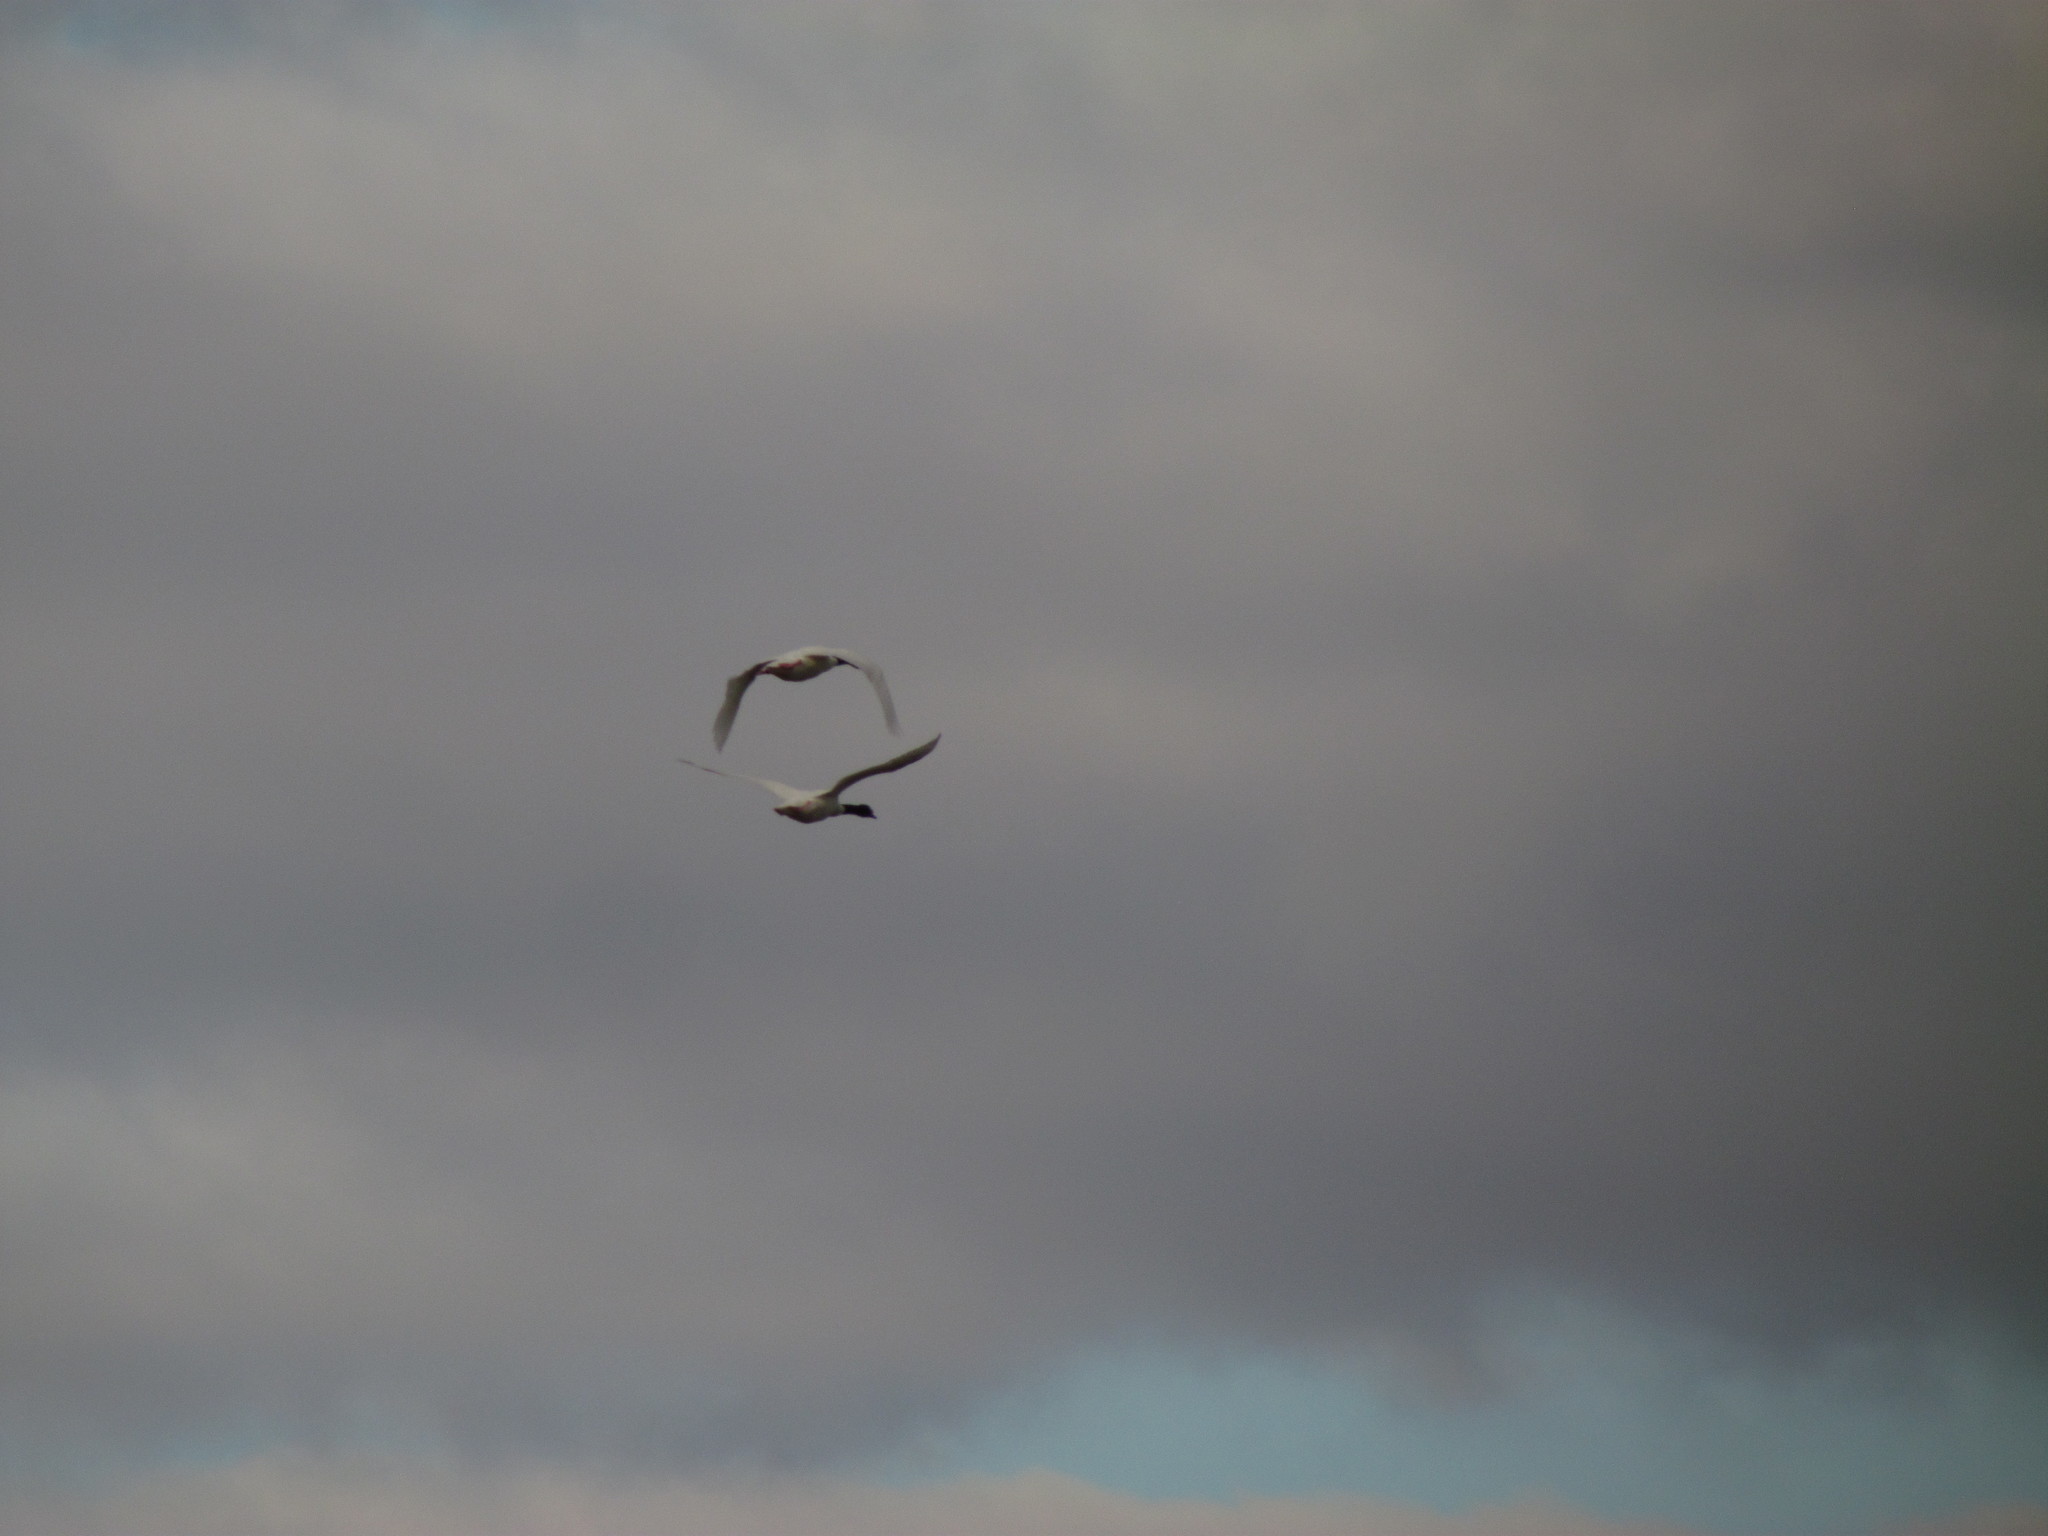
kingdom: Animalia
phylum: Chordata
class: Aves
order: Anseriformes
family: Anatidae
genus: Cygnus
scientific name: Cygnus melancoryphus
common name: Black-necked swan
